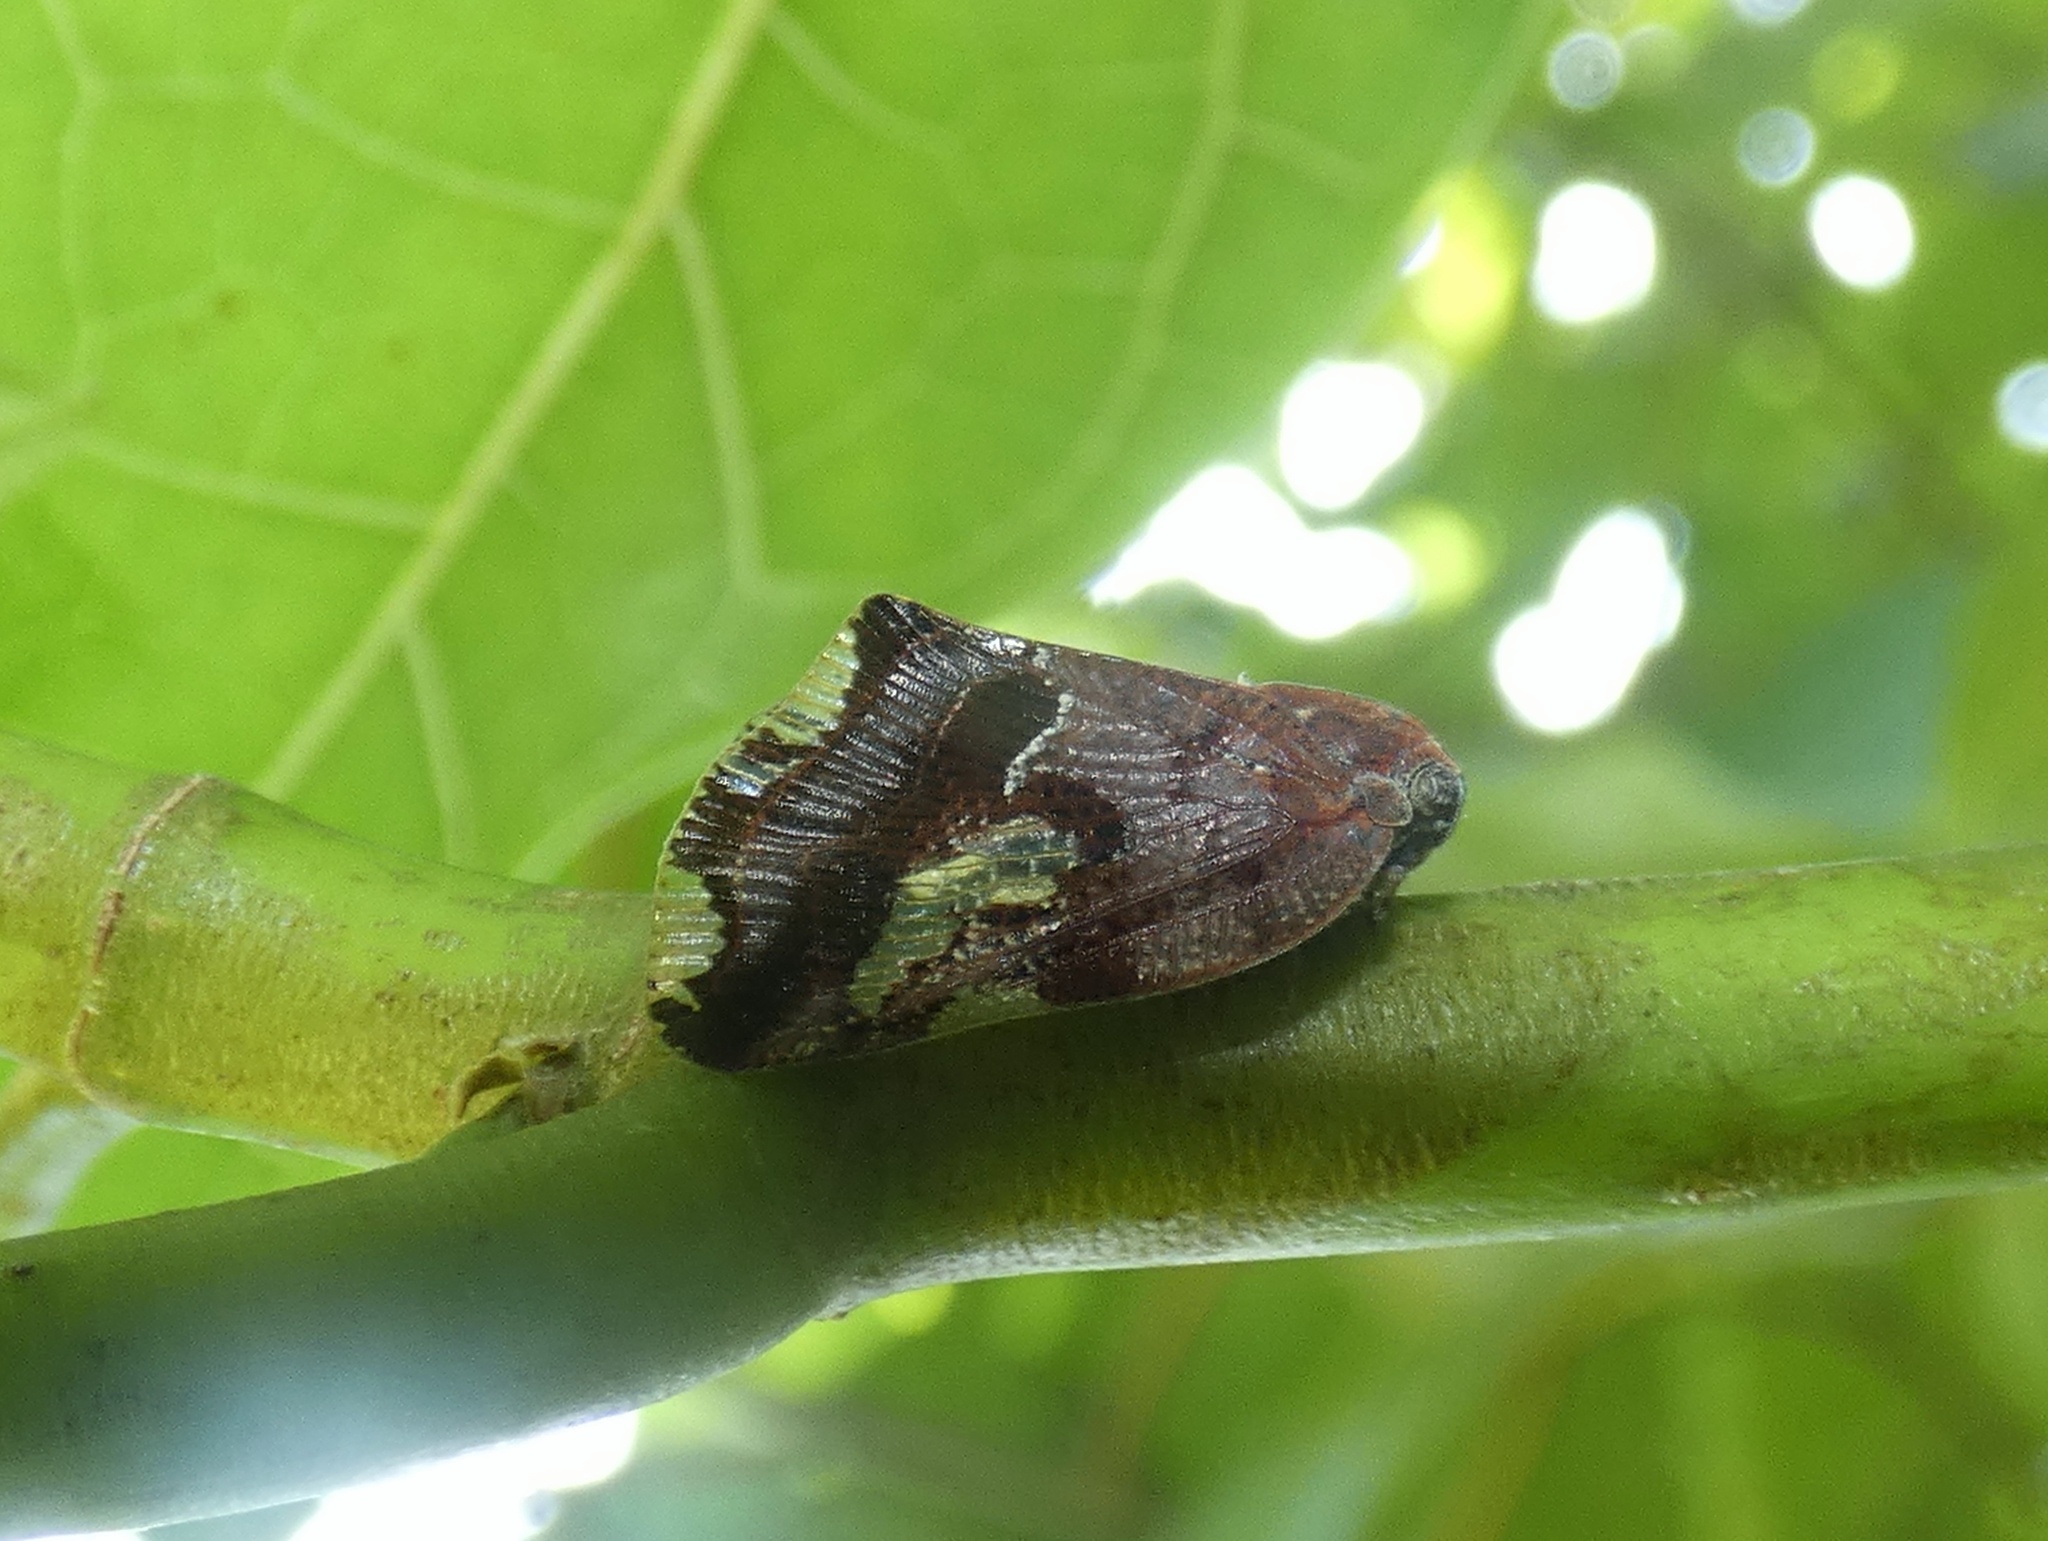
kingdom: Animalia
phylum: Arthropoda
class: Insecta
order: Hemiptera
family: Ricaniidae
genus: Ricania
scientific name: Ricania speculum
